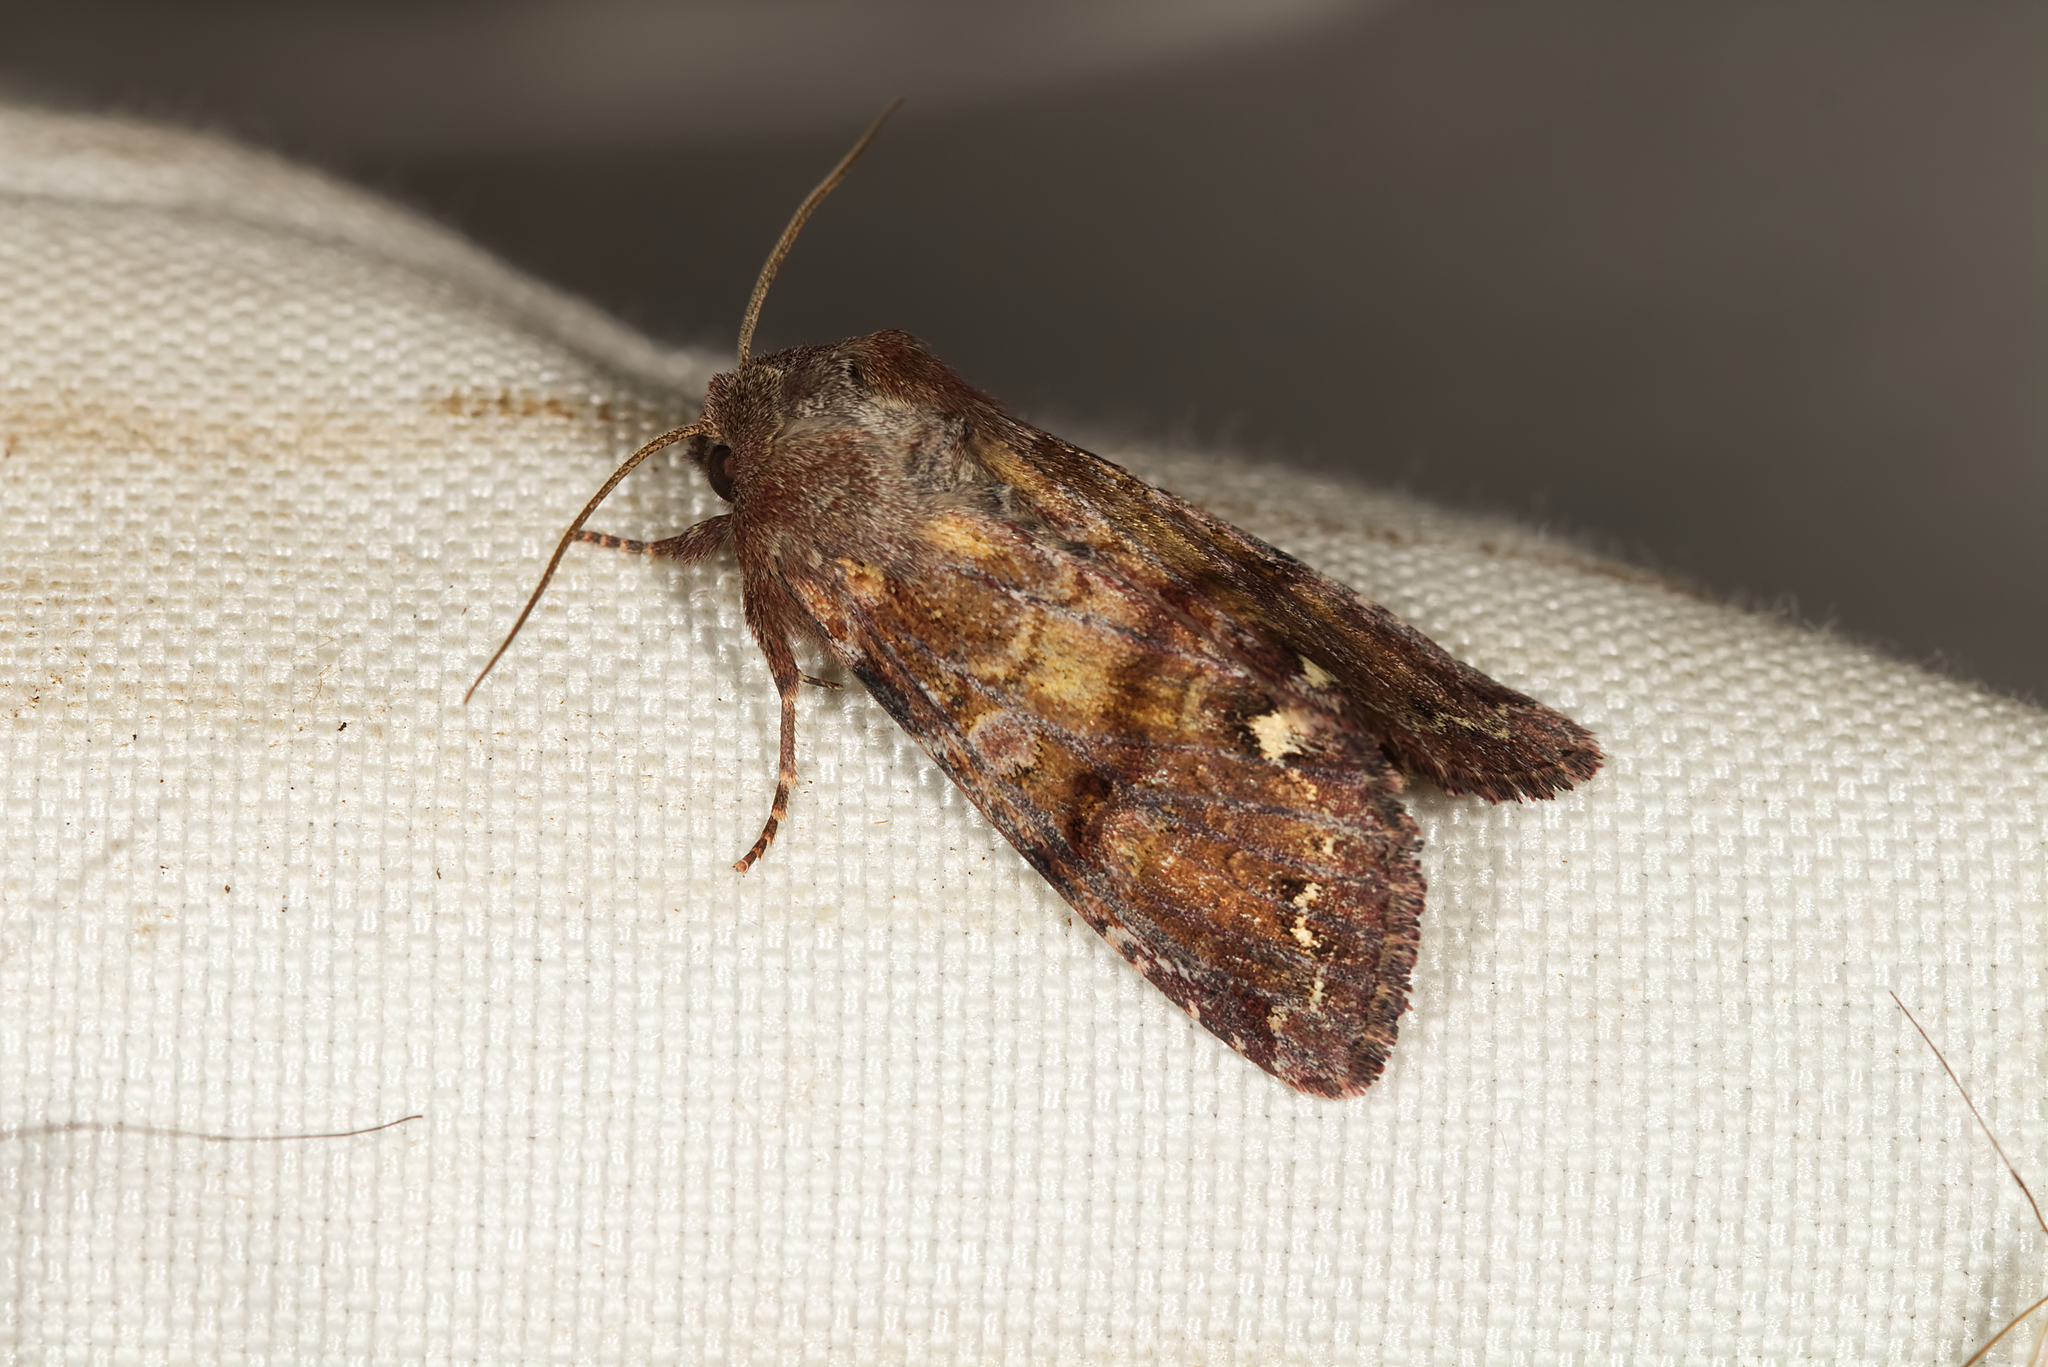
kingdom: Animalia
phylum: Arthropoda
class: Insecta
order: Lepidoptera
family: Noctuidae
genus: Ceramica
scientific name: Ceramica pisi
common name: Broom moth
